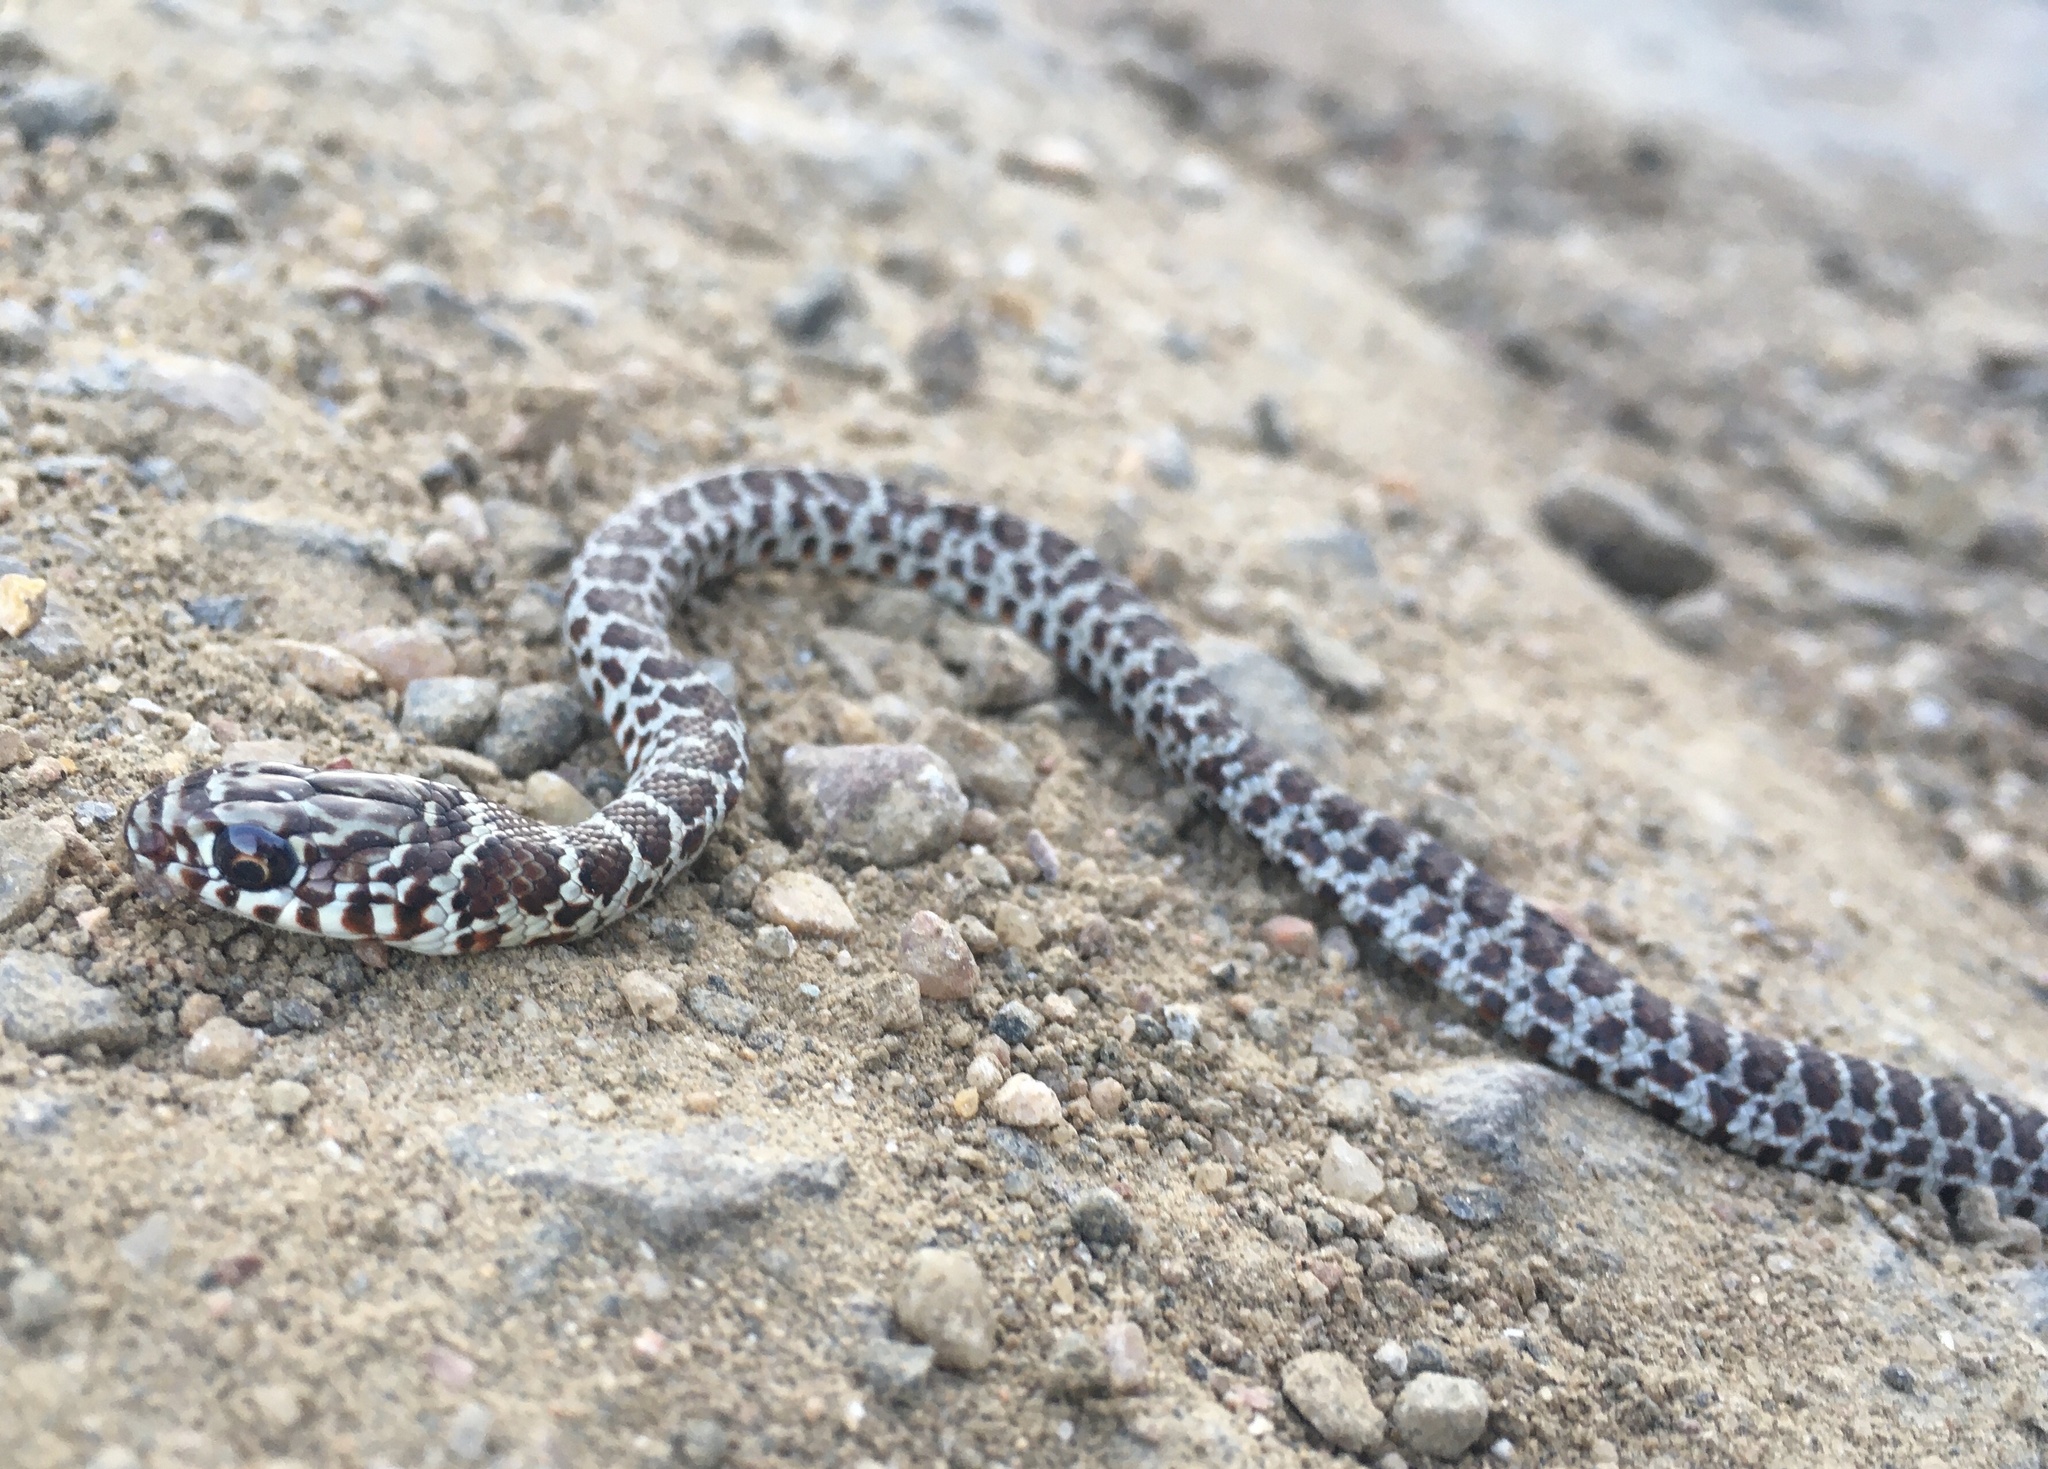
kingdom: Animalia
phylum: Chordata
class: Squamata
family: Colubridae
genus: Coluber
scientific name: Coluber constrictor
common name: Eastern racer
